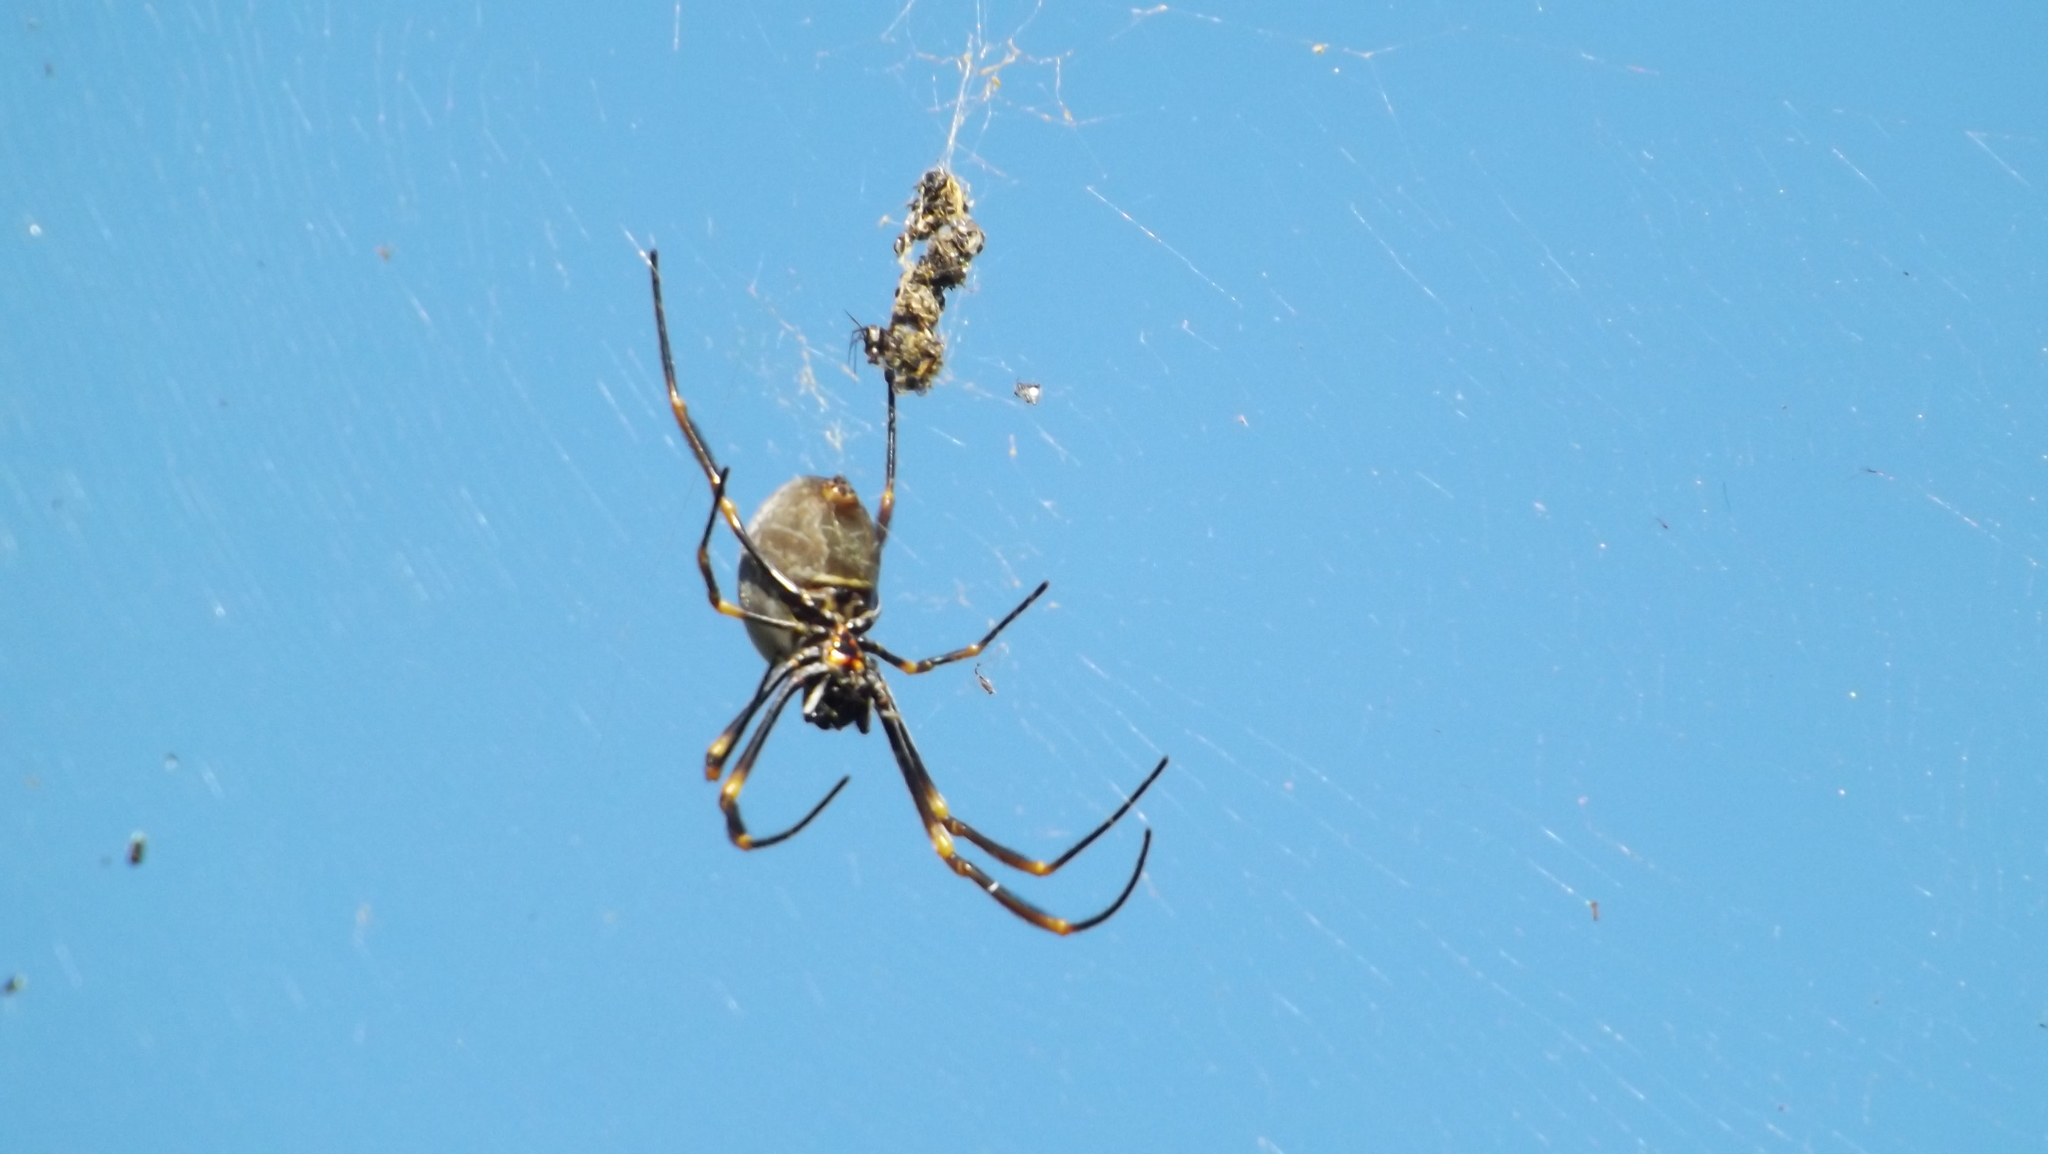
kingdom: Animalia
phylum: Arthropoda
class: Arachnida
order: Araneae
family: Araneidae
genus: Trichonephila
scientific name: Trichonephila plumipes
